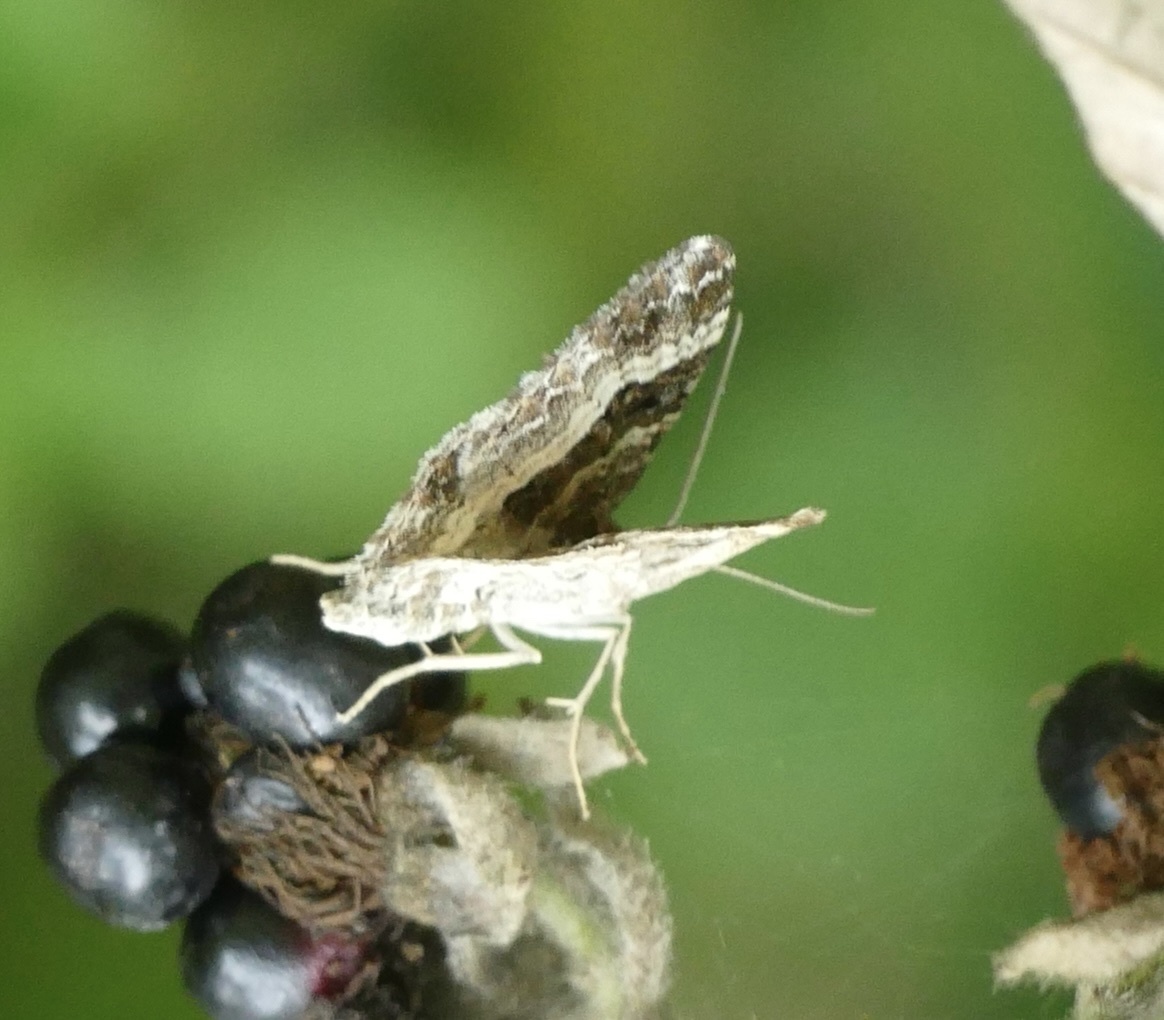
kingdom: Animalia
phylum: Arthropoda
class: Insecta
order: Lepidoptera
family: Geometridae
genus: Epirrhoe
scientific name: Epirrhoe alternata
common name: Common carpet
